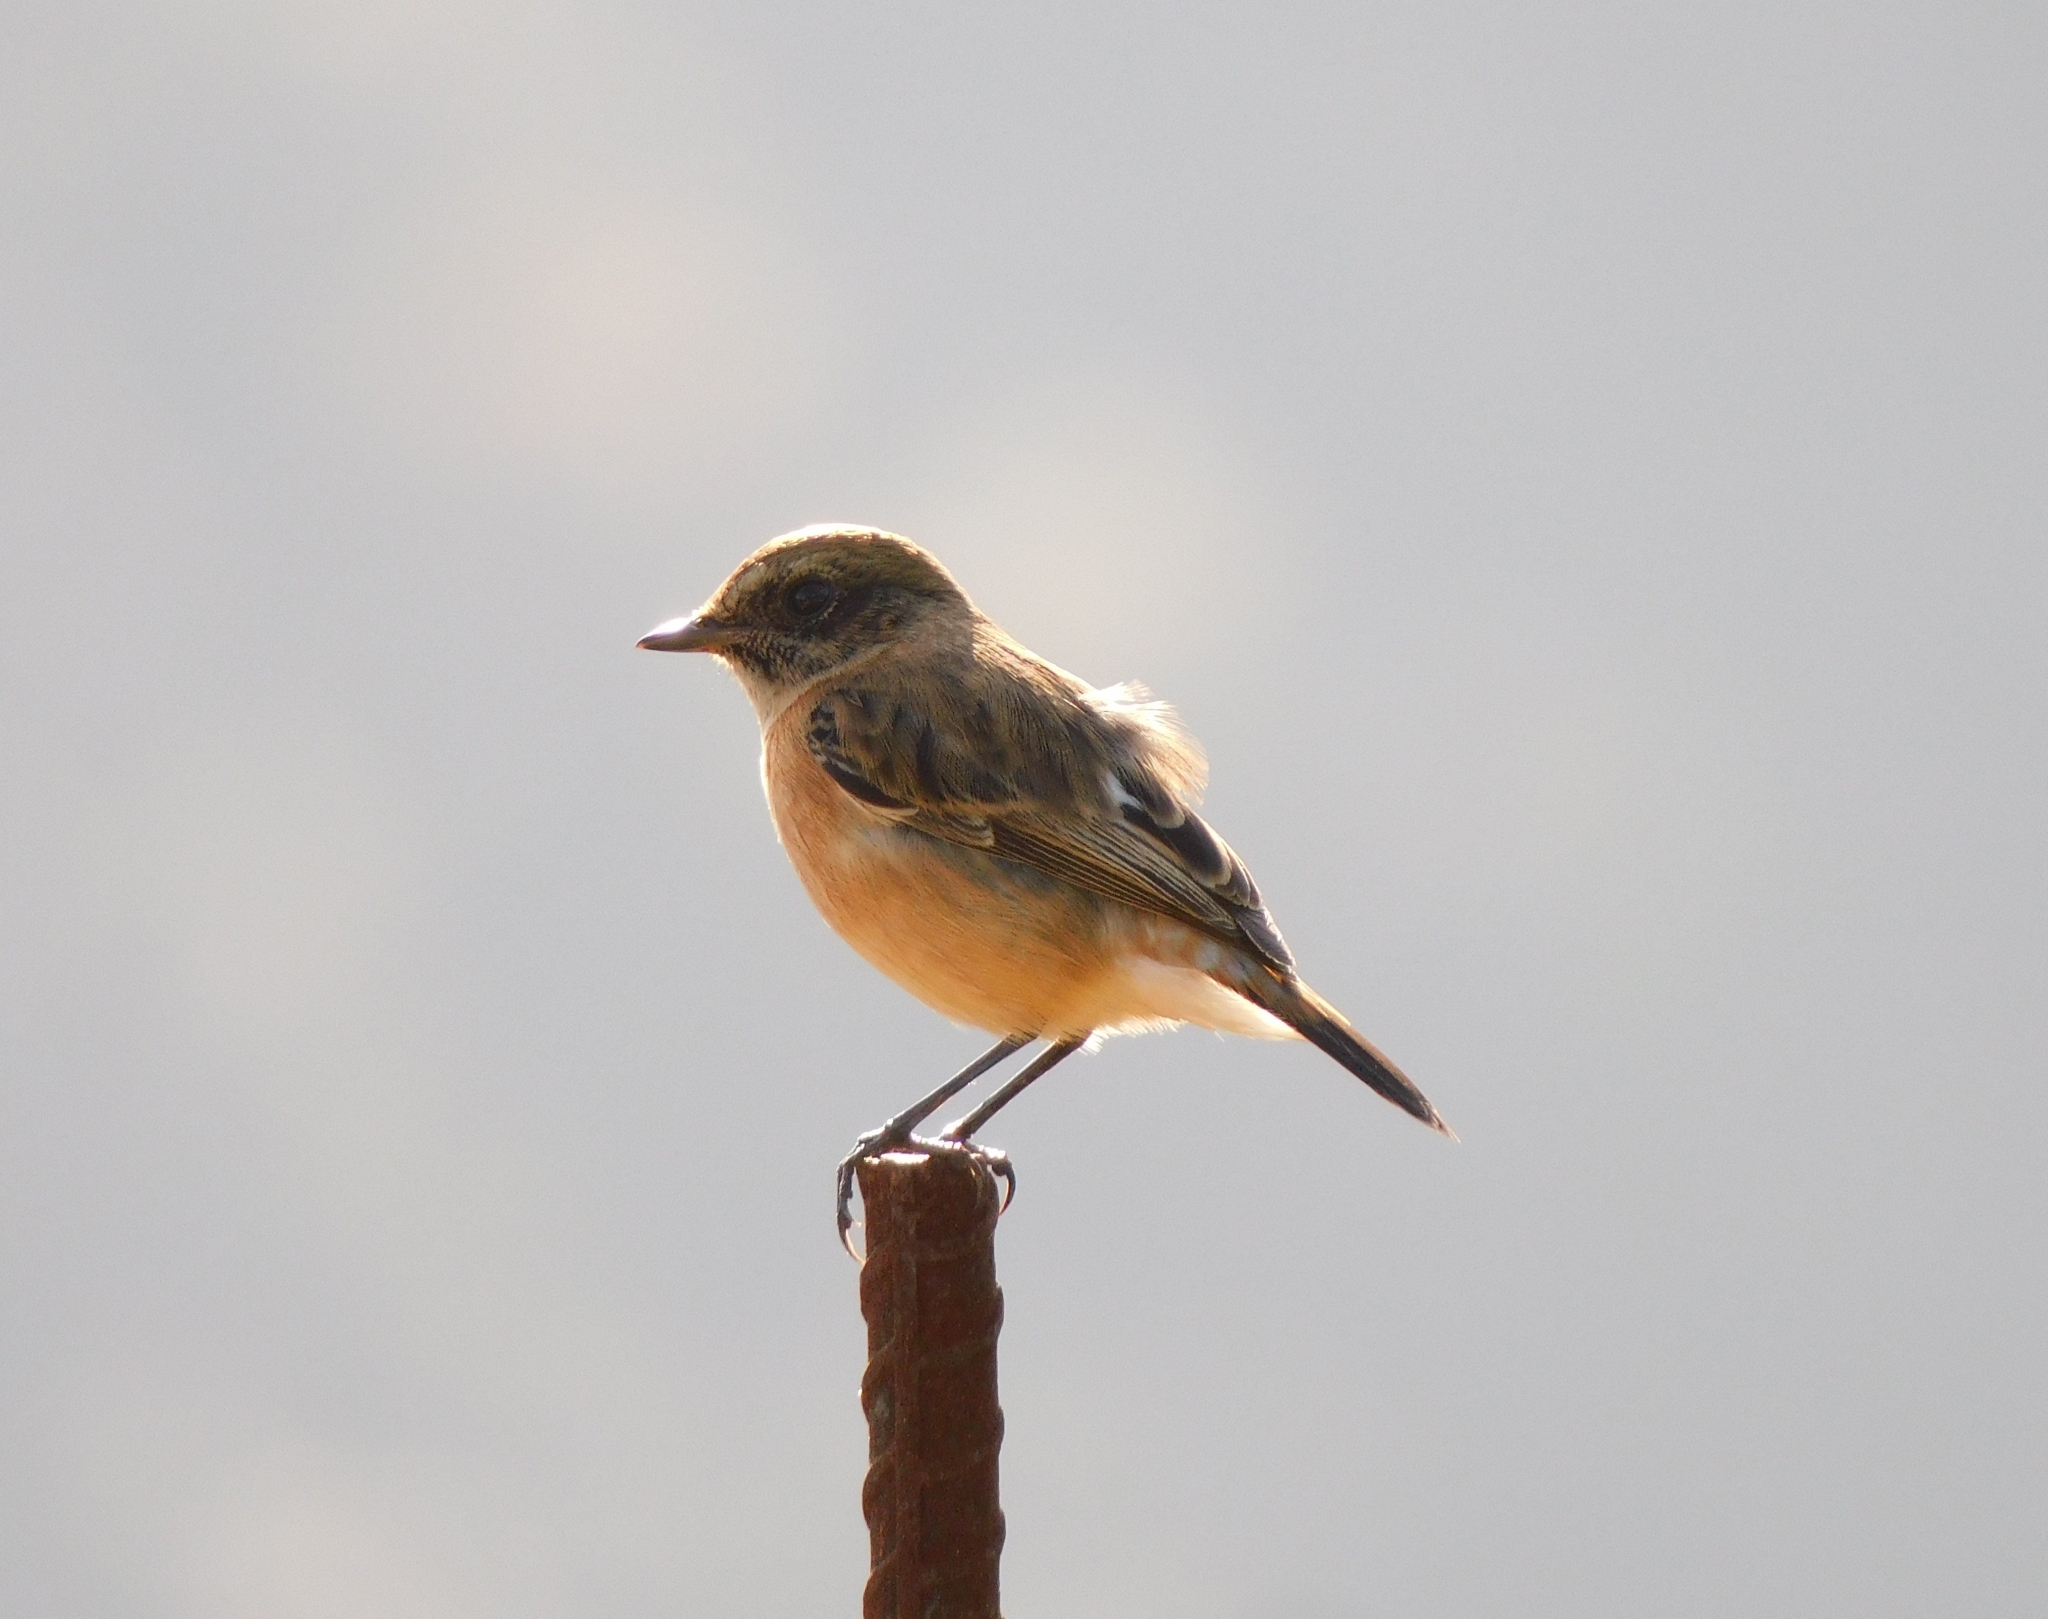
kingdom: Animalia
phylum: Chordata
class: Aves
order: Passeriformes
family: Muscicapidae
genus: Saxicola
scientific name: Saxicola maurus
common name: Siberian stonechat
